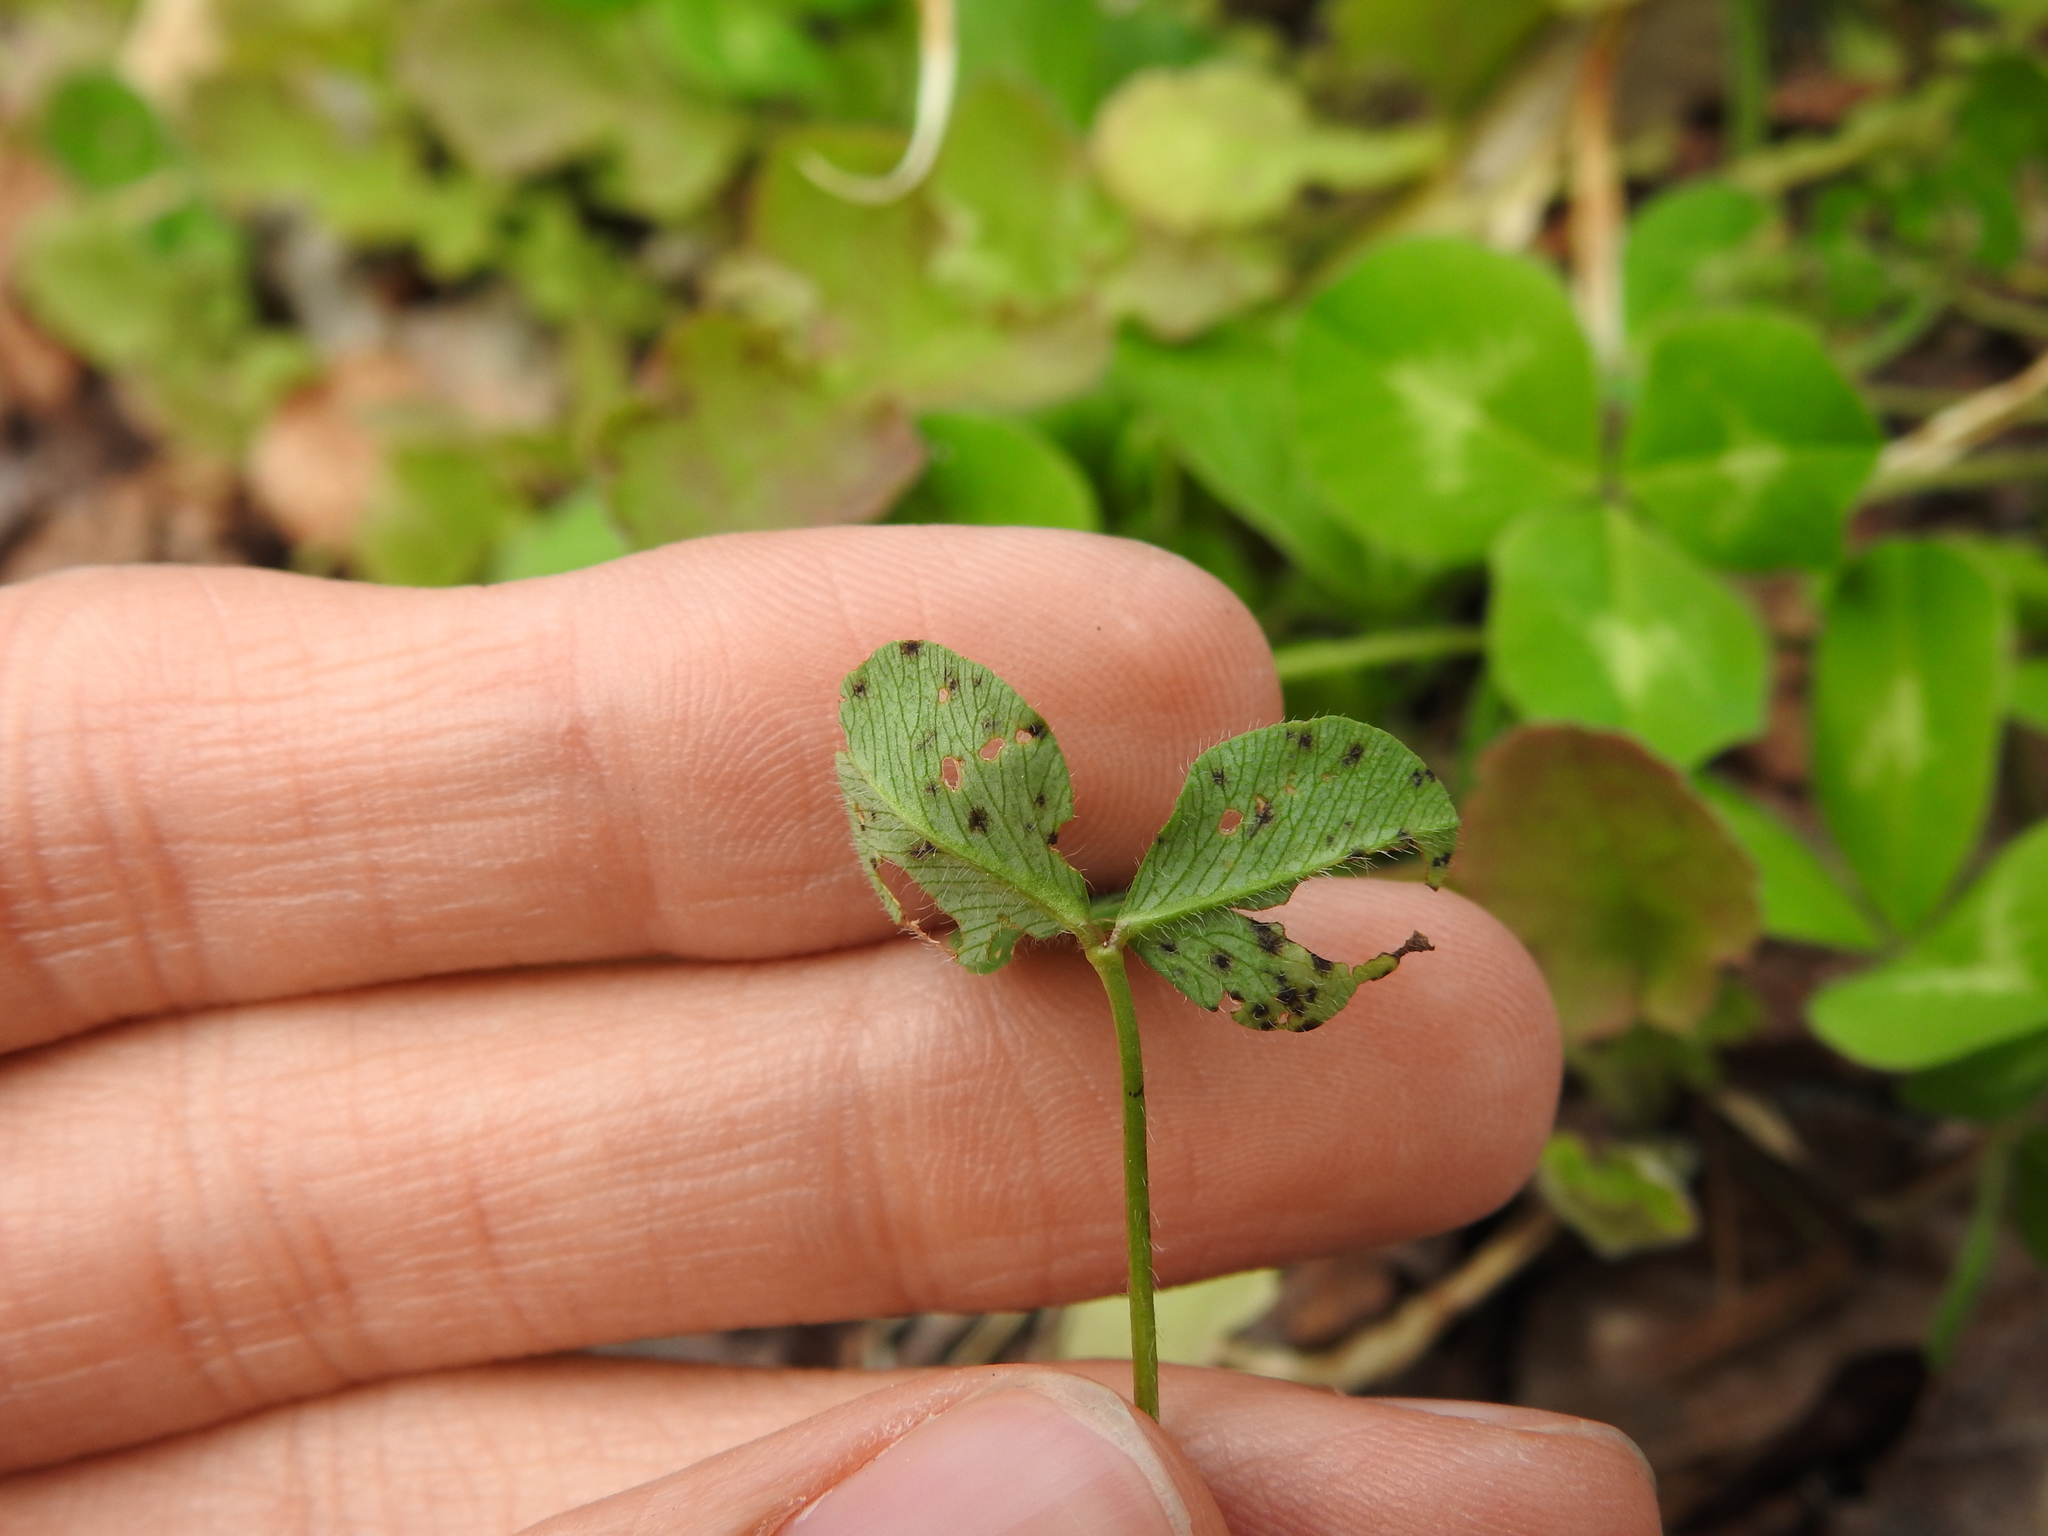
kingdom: Fungi
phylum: Ascomycota
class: Leotiomycetes
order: Helotiales
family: Drepanopezizaceae
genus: Pseudopeziza
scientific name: Pseudopeziza trifolii
